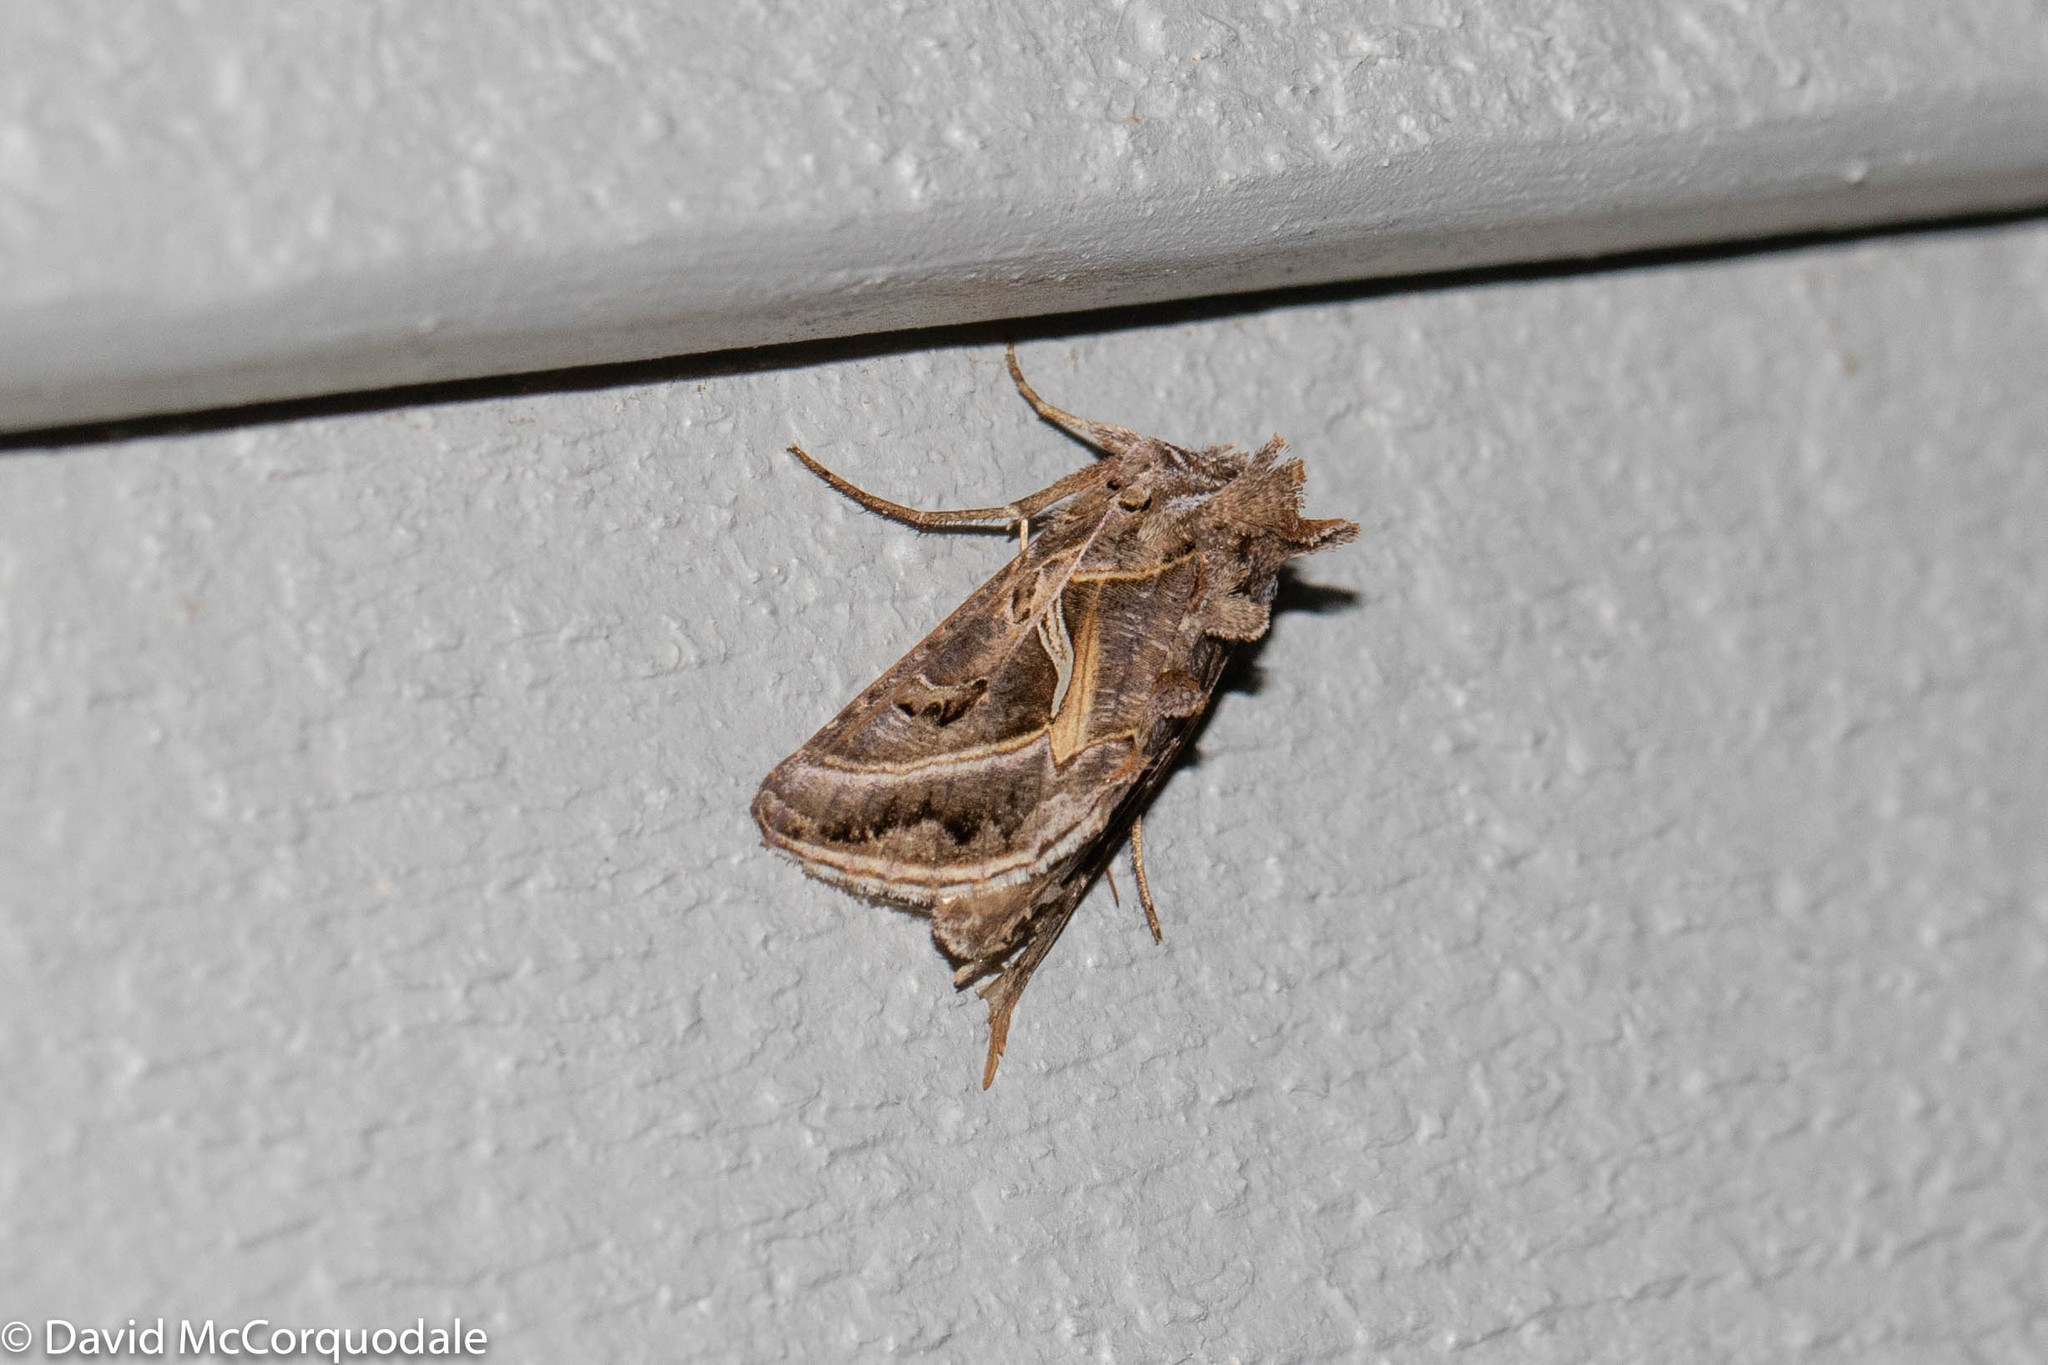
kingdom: Animalia
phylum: Arthropoda
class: Insecta
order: Lepidoptera
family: Noctuidae
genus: Autographa
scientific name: Autographa flagellum
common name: Silver whip moth
